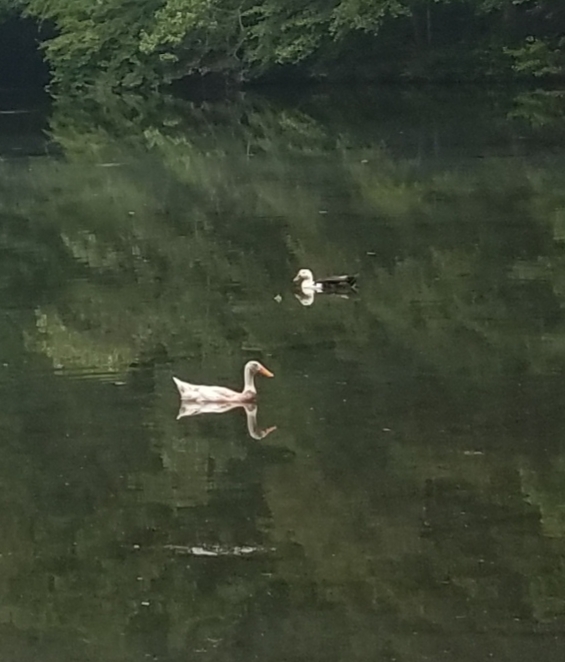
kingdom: Animalia
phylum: Chordata
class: Aves
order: Anseriformes
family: Anatidae
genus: Anas
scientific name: Anas platyrhynchos
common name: Mallard
